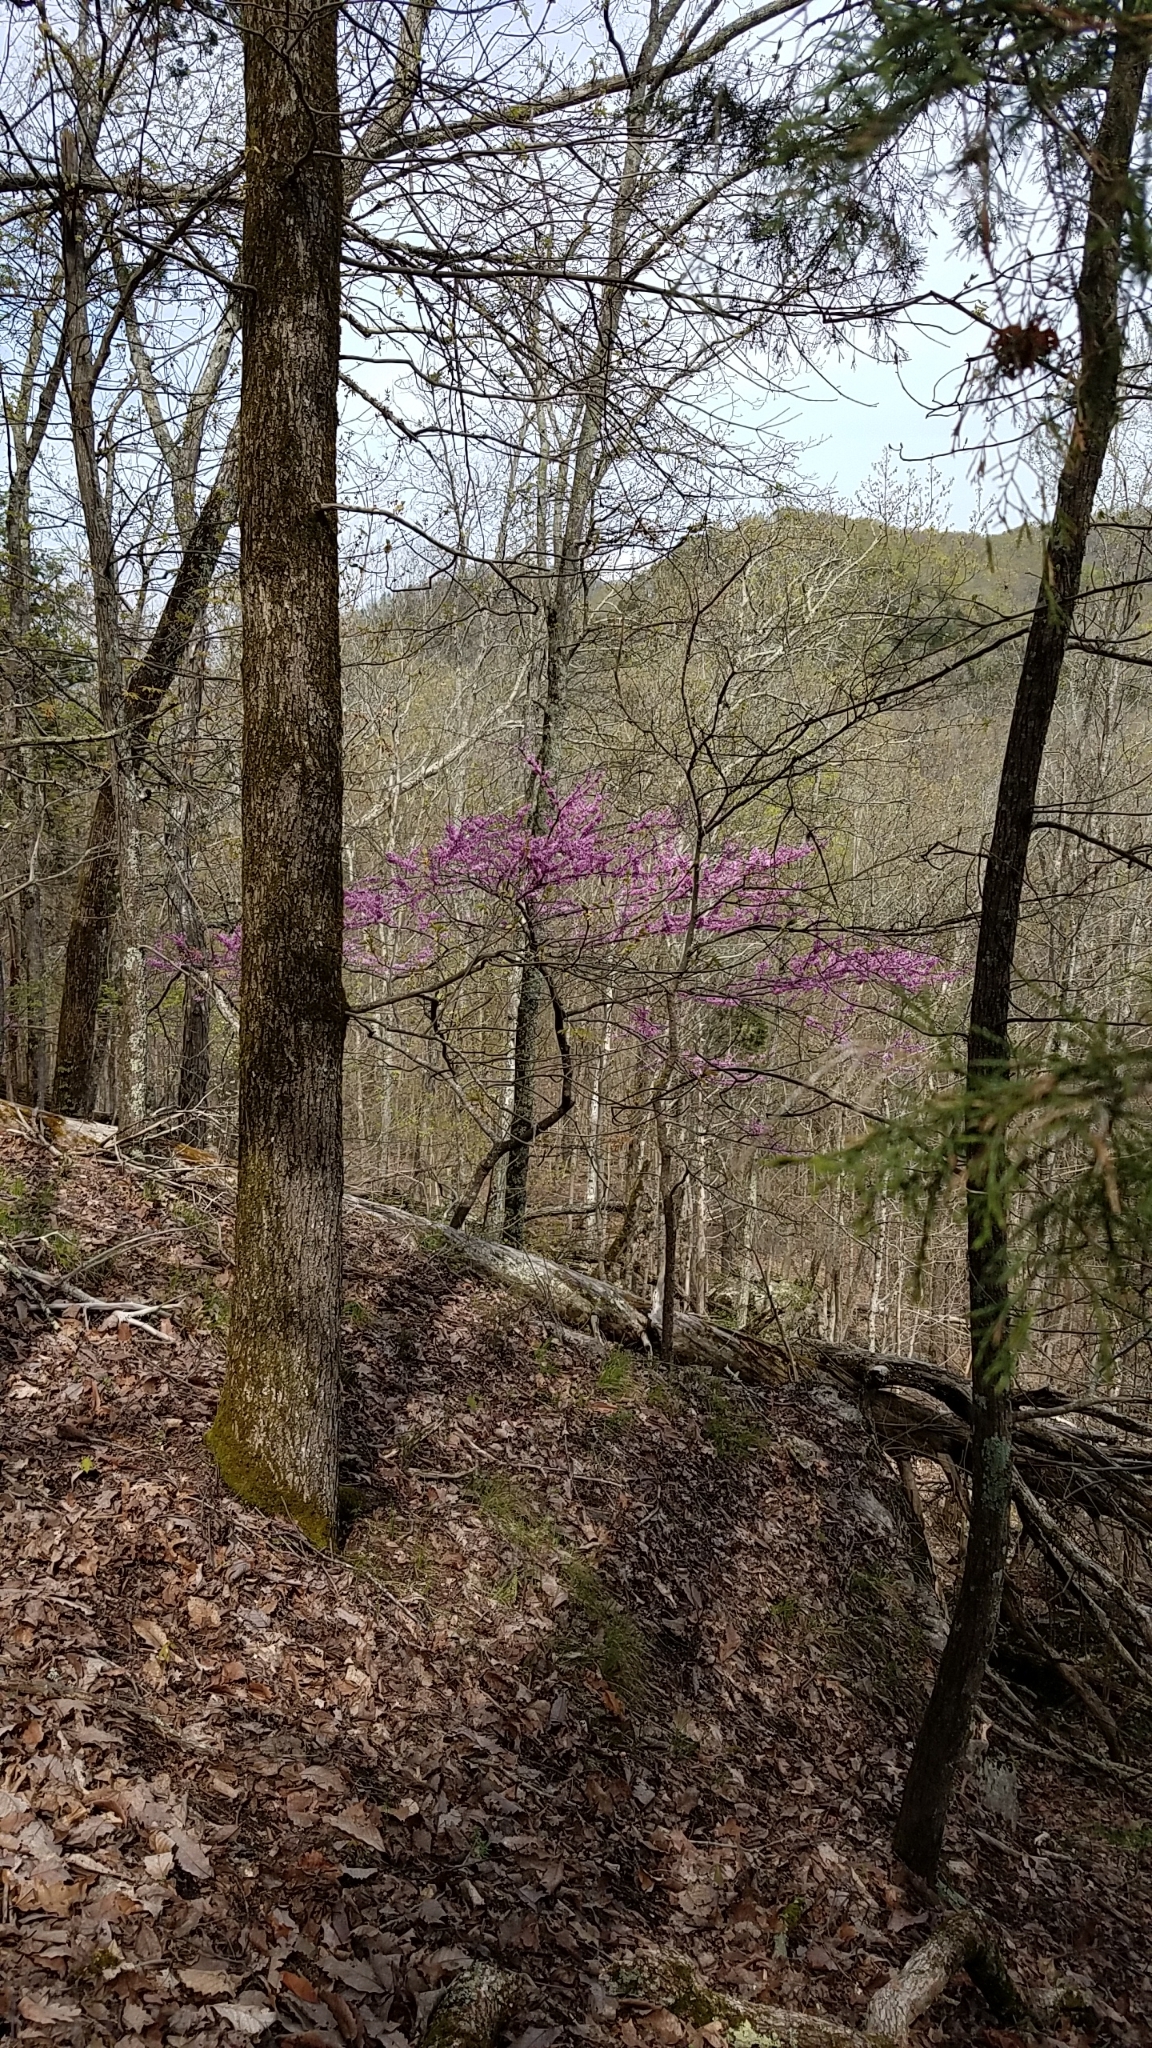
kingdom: Plantae
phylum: Tracheophyta
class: Magnoliopsida
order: Fabales
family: Fabaceae
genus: Cercis
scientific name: Cercis canadensis
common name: Eastern redbud
